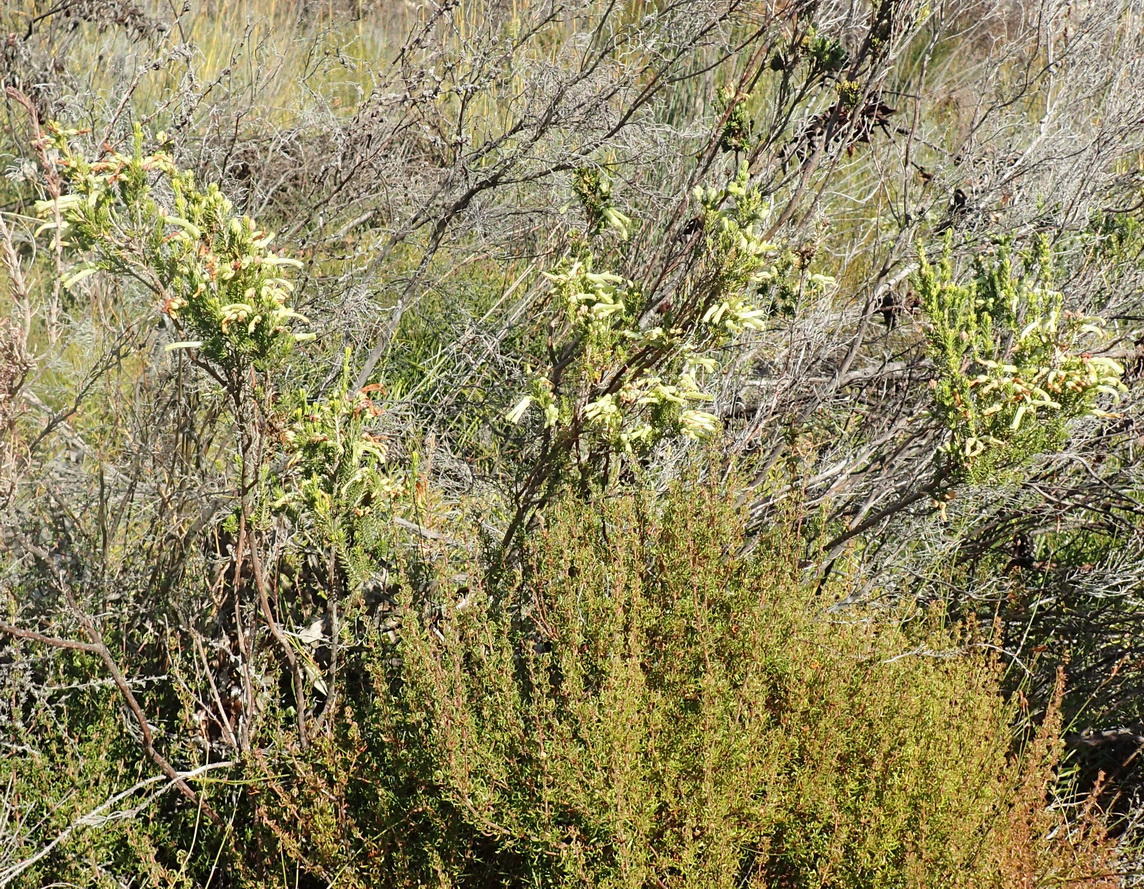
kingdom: Plantae
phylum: Tracheophyta
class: Magnoliopsida
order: Ericales
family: Ericaceae
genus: Erica
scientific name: Erica discolor
